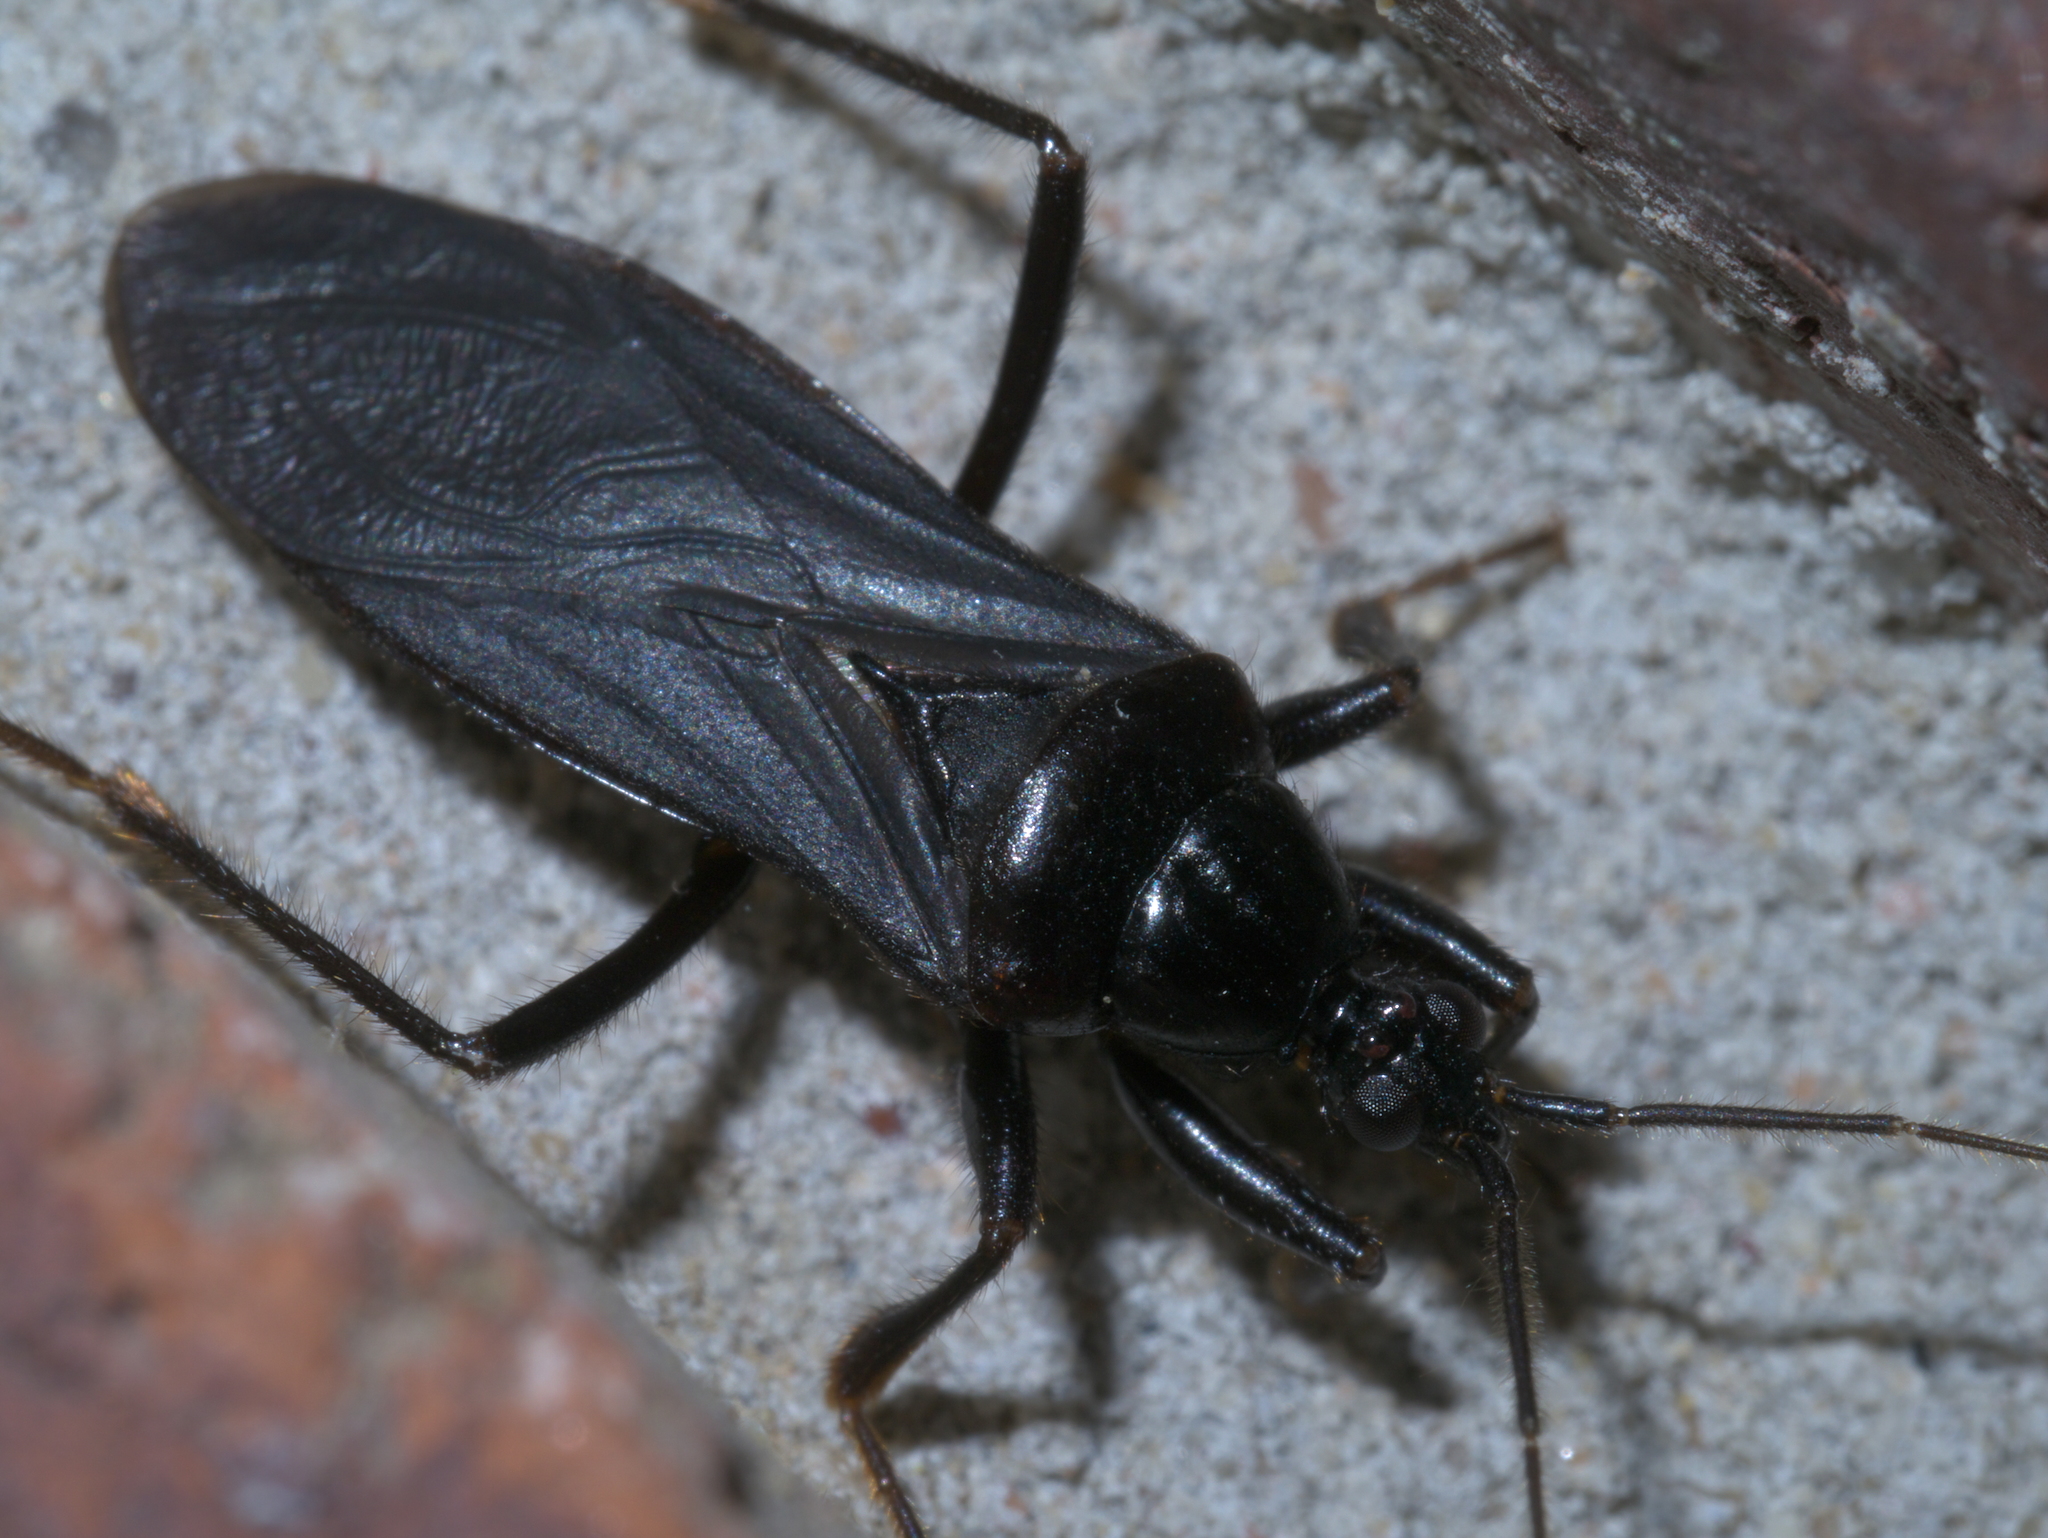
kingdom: Animalia
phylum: Arthropoda
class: Insecta
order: Hemiptera
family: Reduviidae
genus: Melanolestes
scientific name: Melanolestes picipes
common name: Assassin bug
